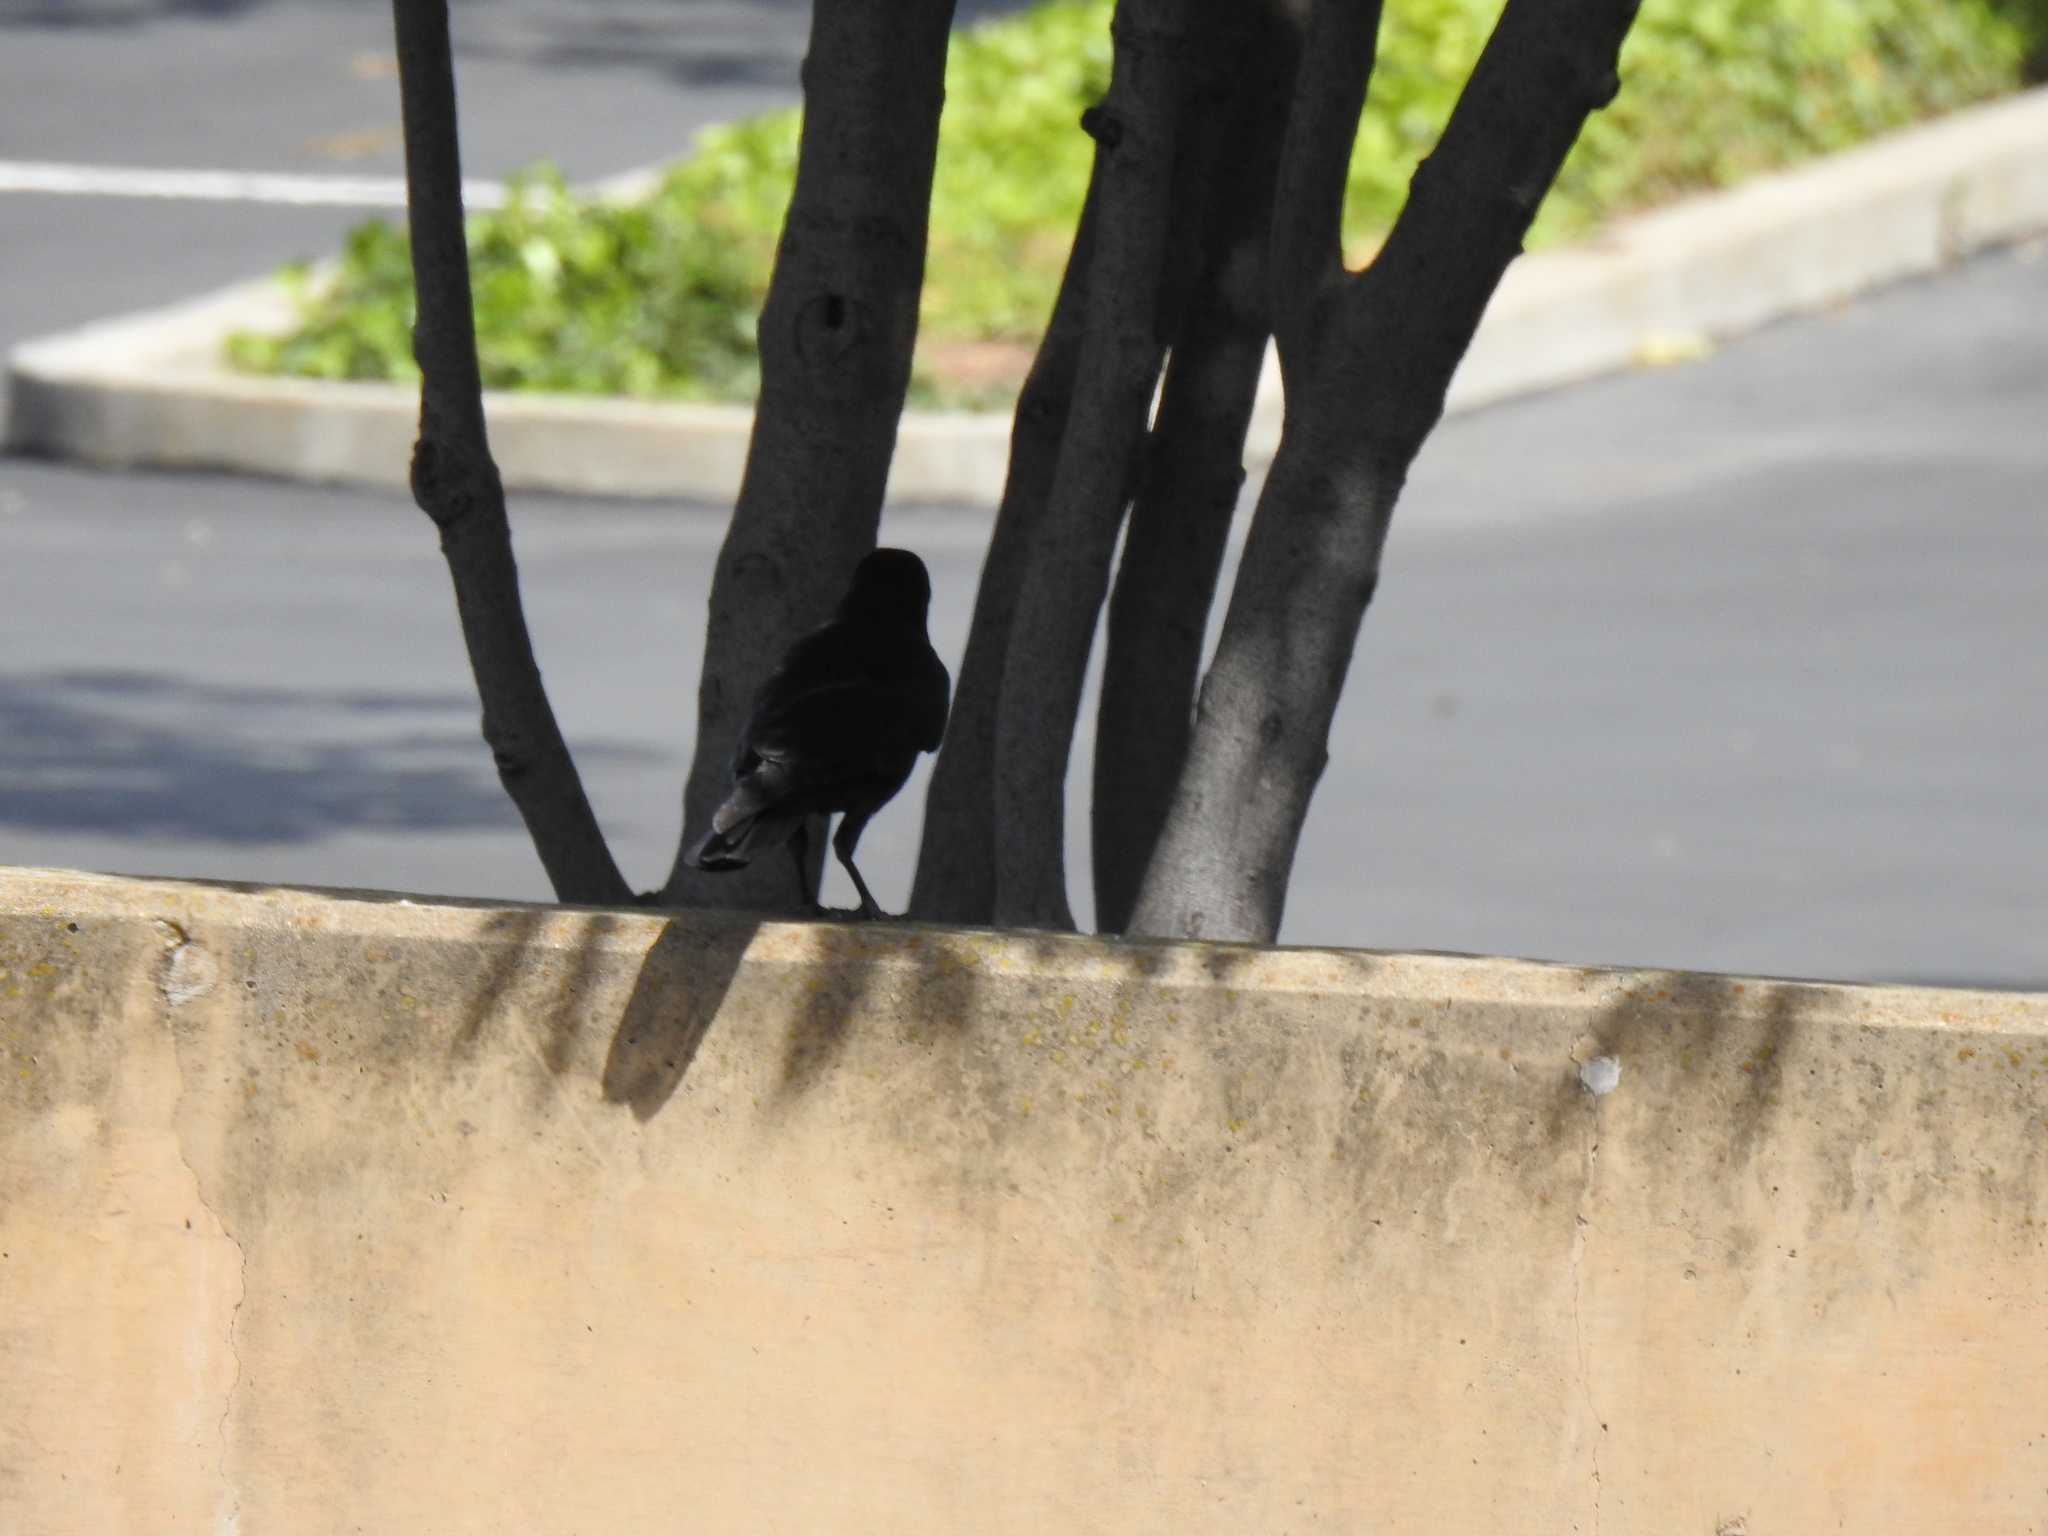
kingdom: Animalia
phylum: Chordata
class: Aves
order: Passeriformes
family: Corvidae
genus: Corvus
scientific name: Corvus brachyrhynchos
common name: American crow
